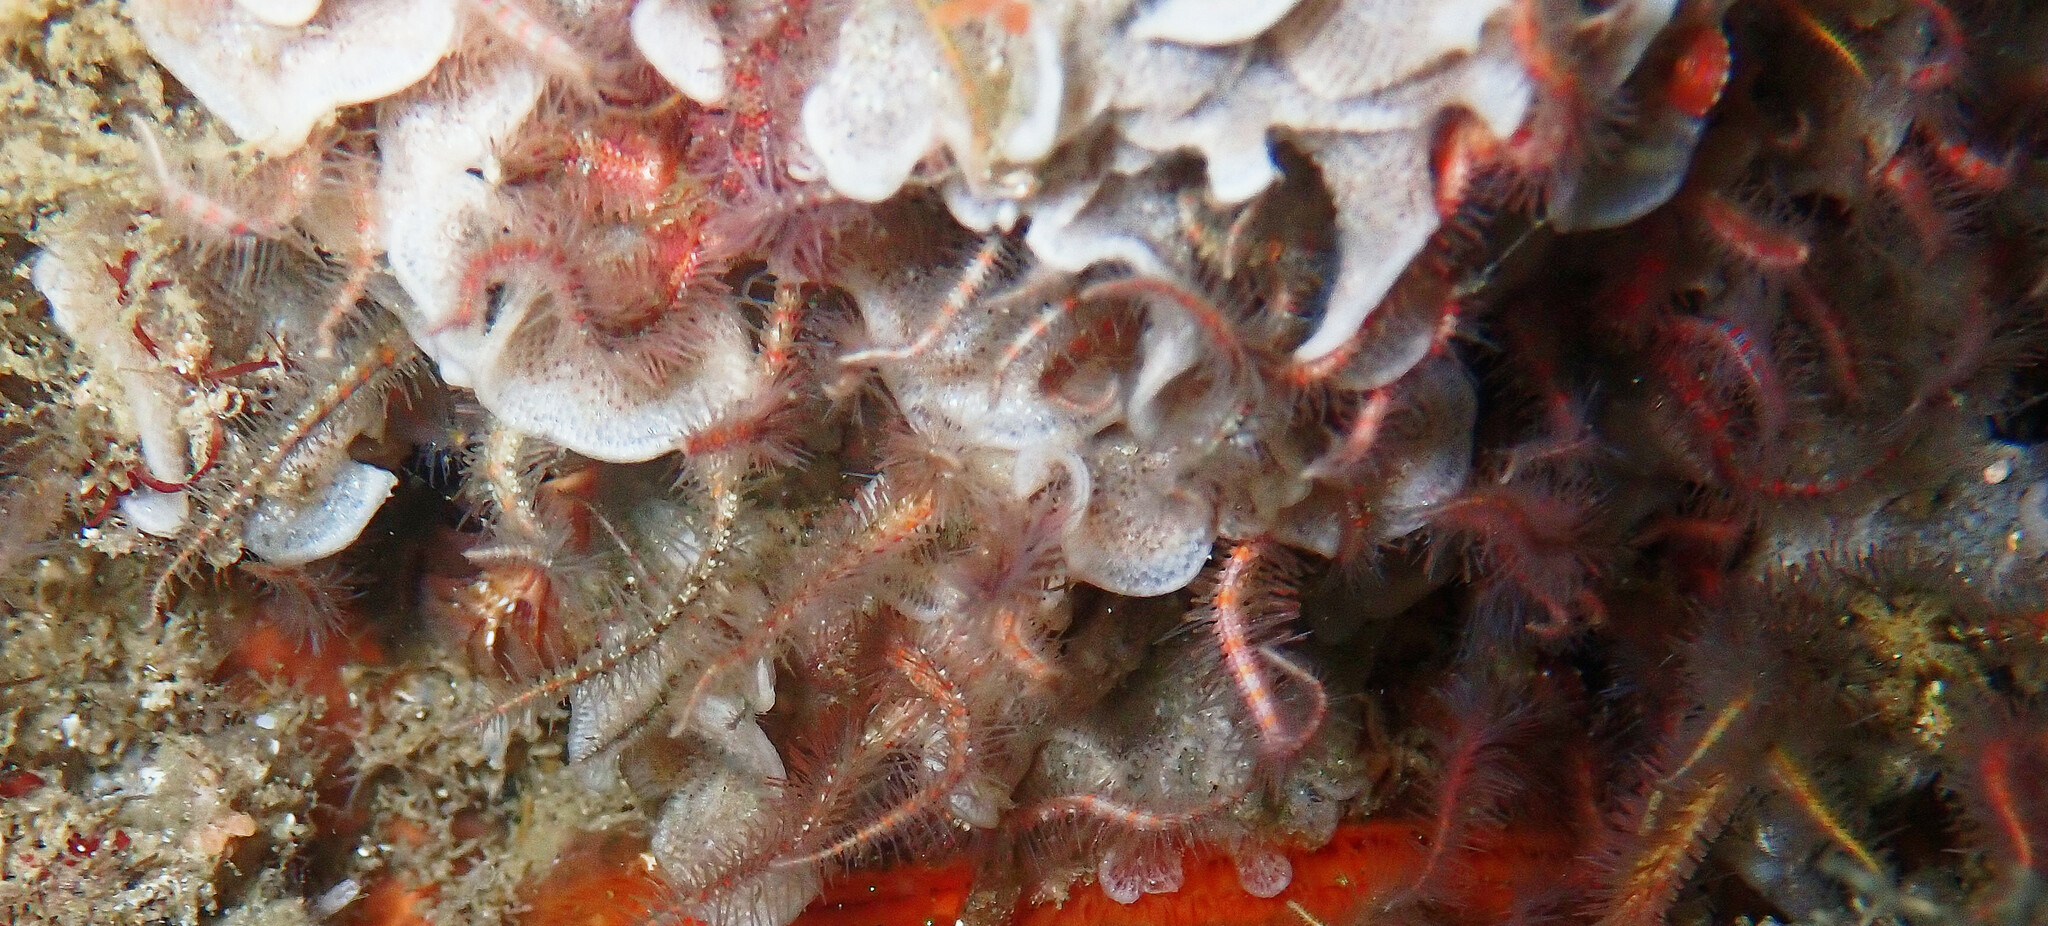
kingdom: Animalia
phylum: Echinodermata
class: Ophiuroidea
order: Amphilepidida
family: Ophiotrichidae
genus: Ophiothrix
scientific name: Ophiothrix spiculata
